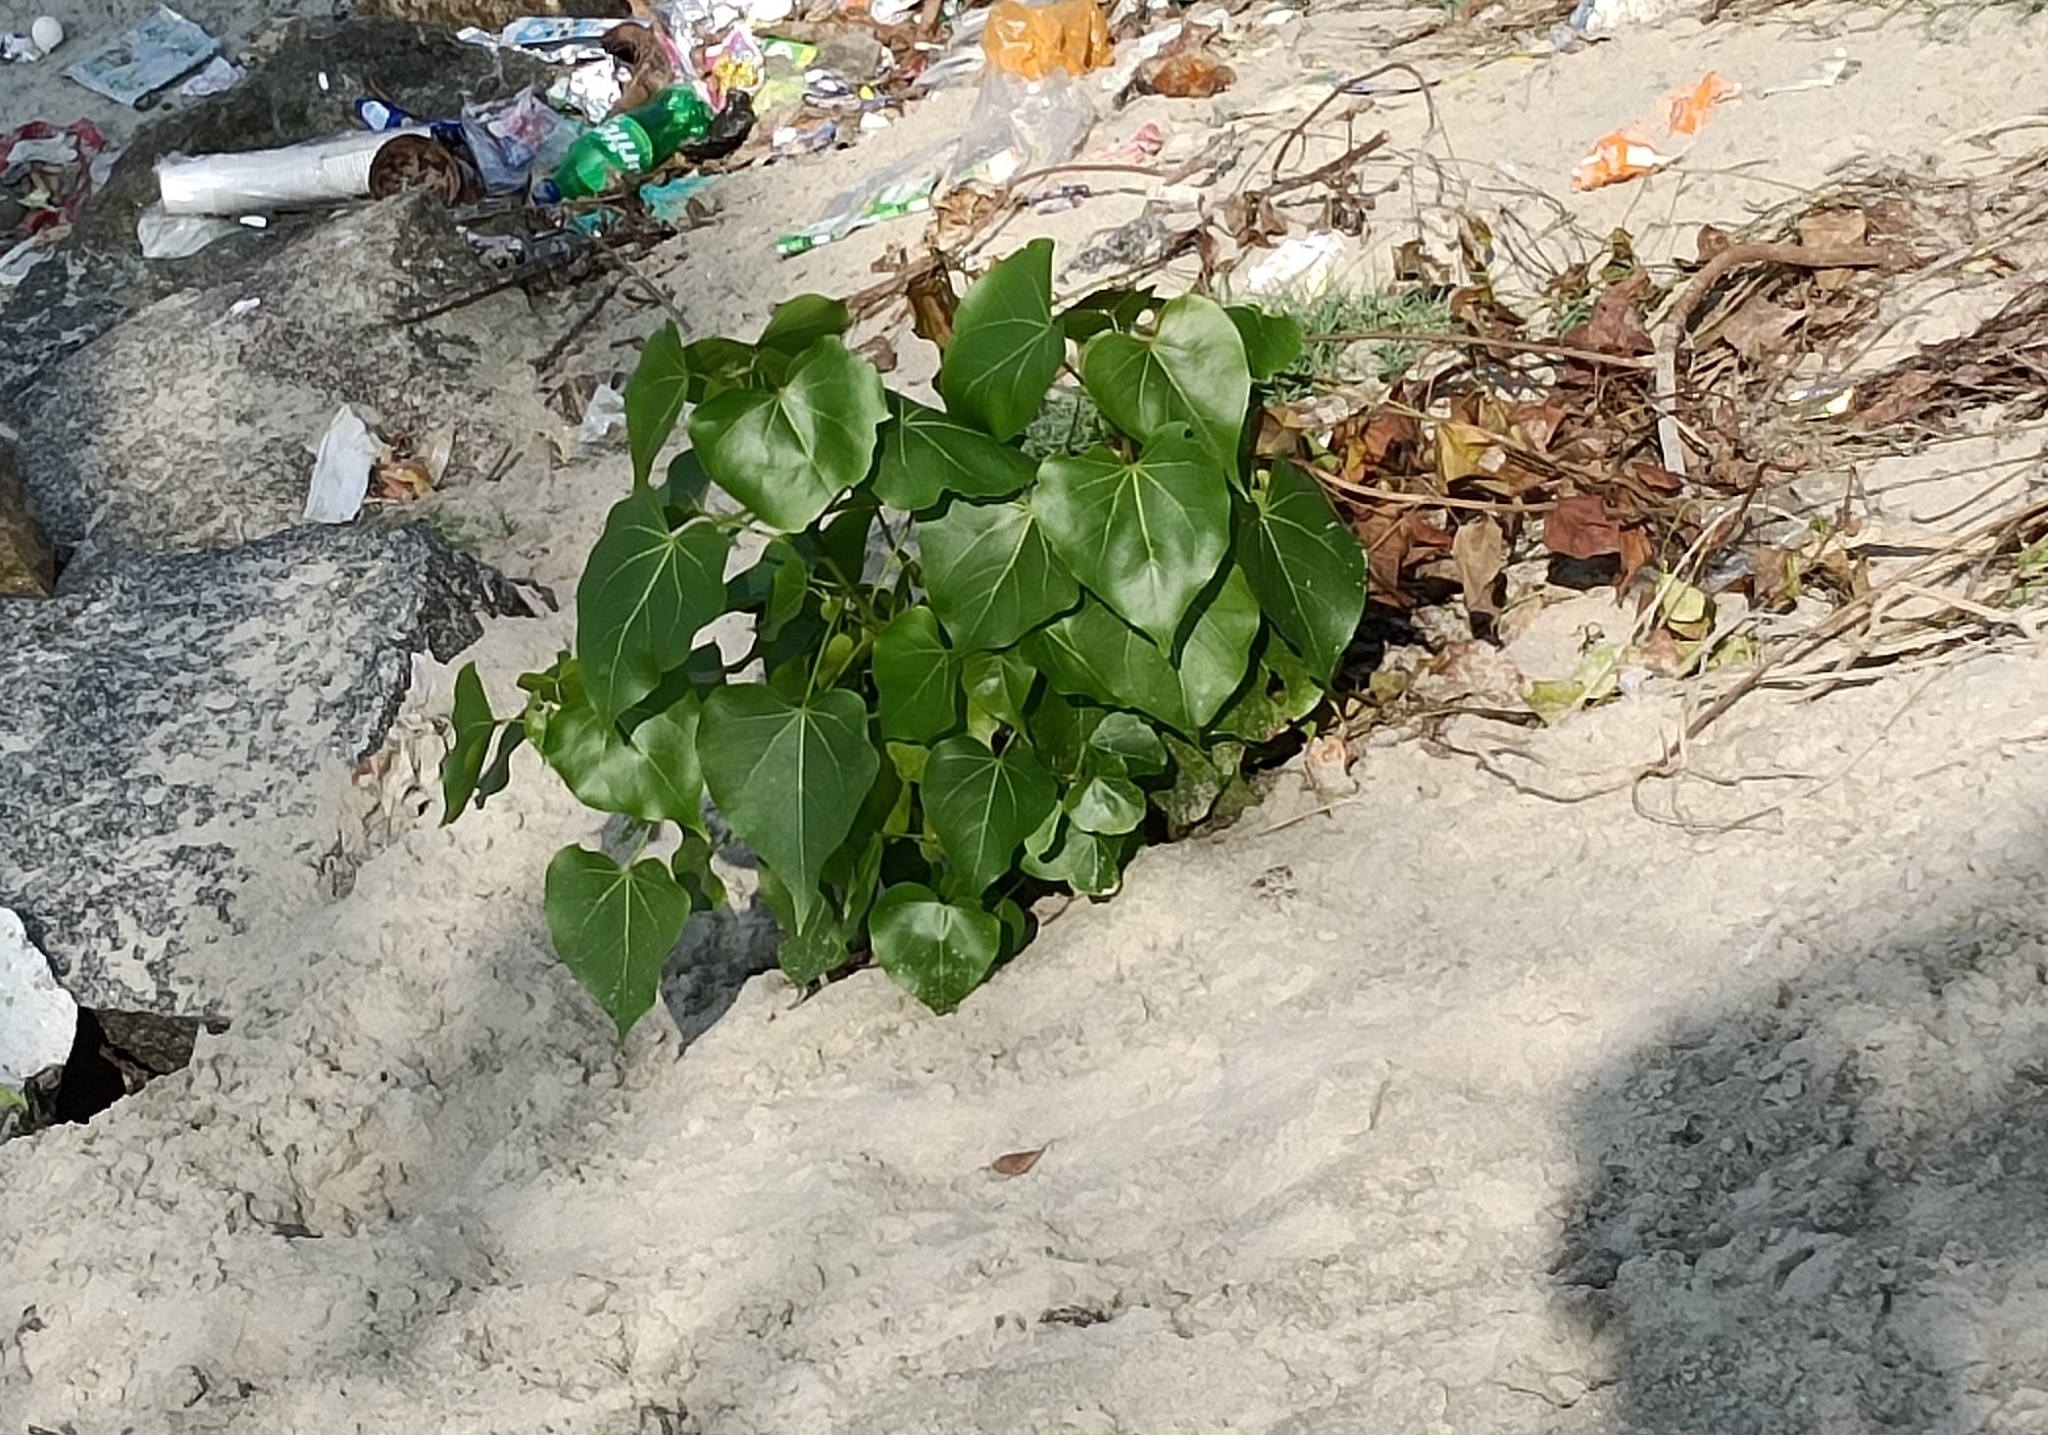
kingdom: Plantae
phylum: Tracheophyta
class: Magnoliopsida
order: Malvales
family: Malvaceae
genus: Thespesia
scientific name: Thespesia populnea
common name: Seaside mahoe
